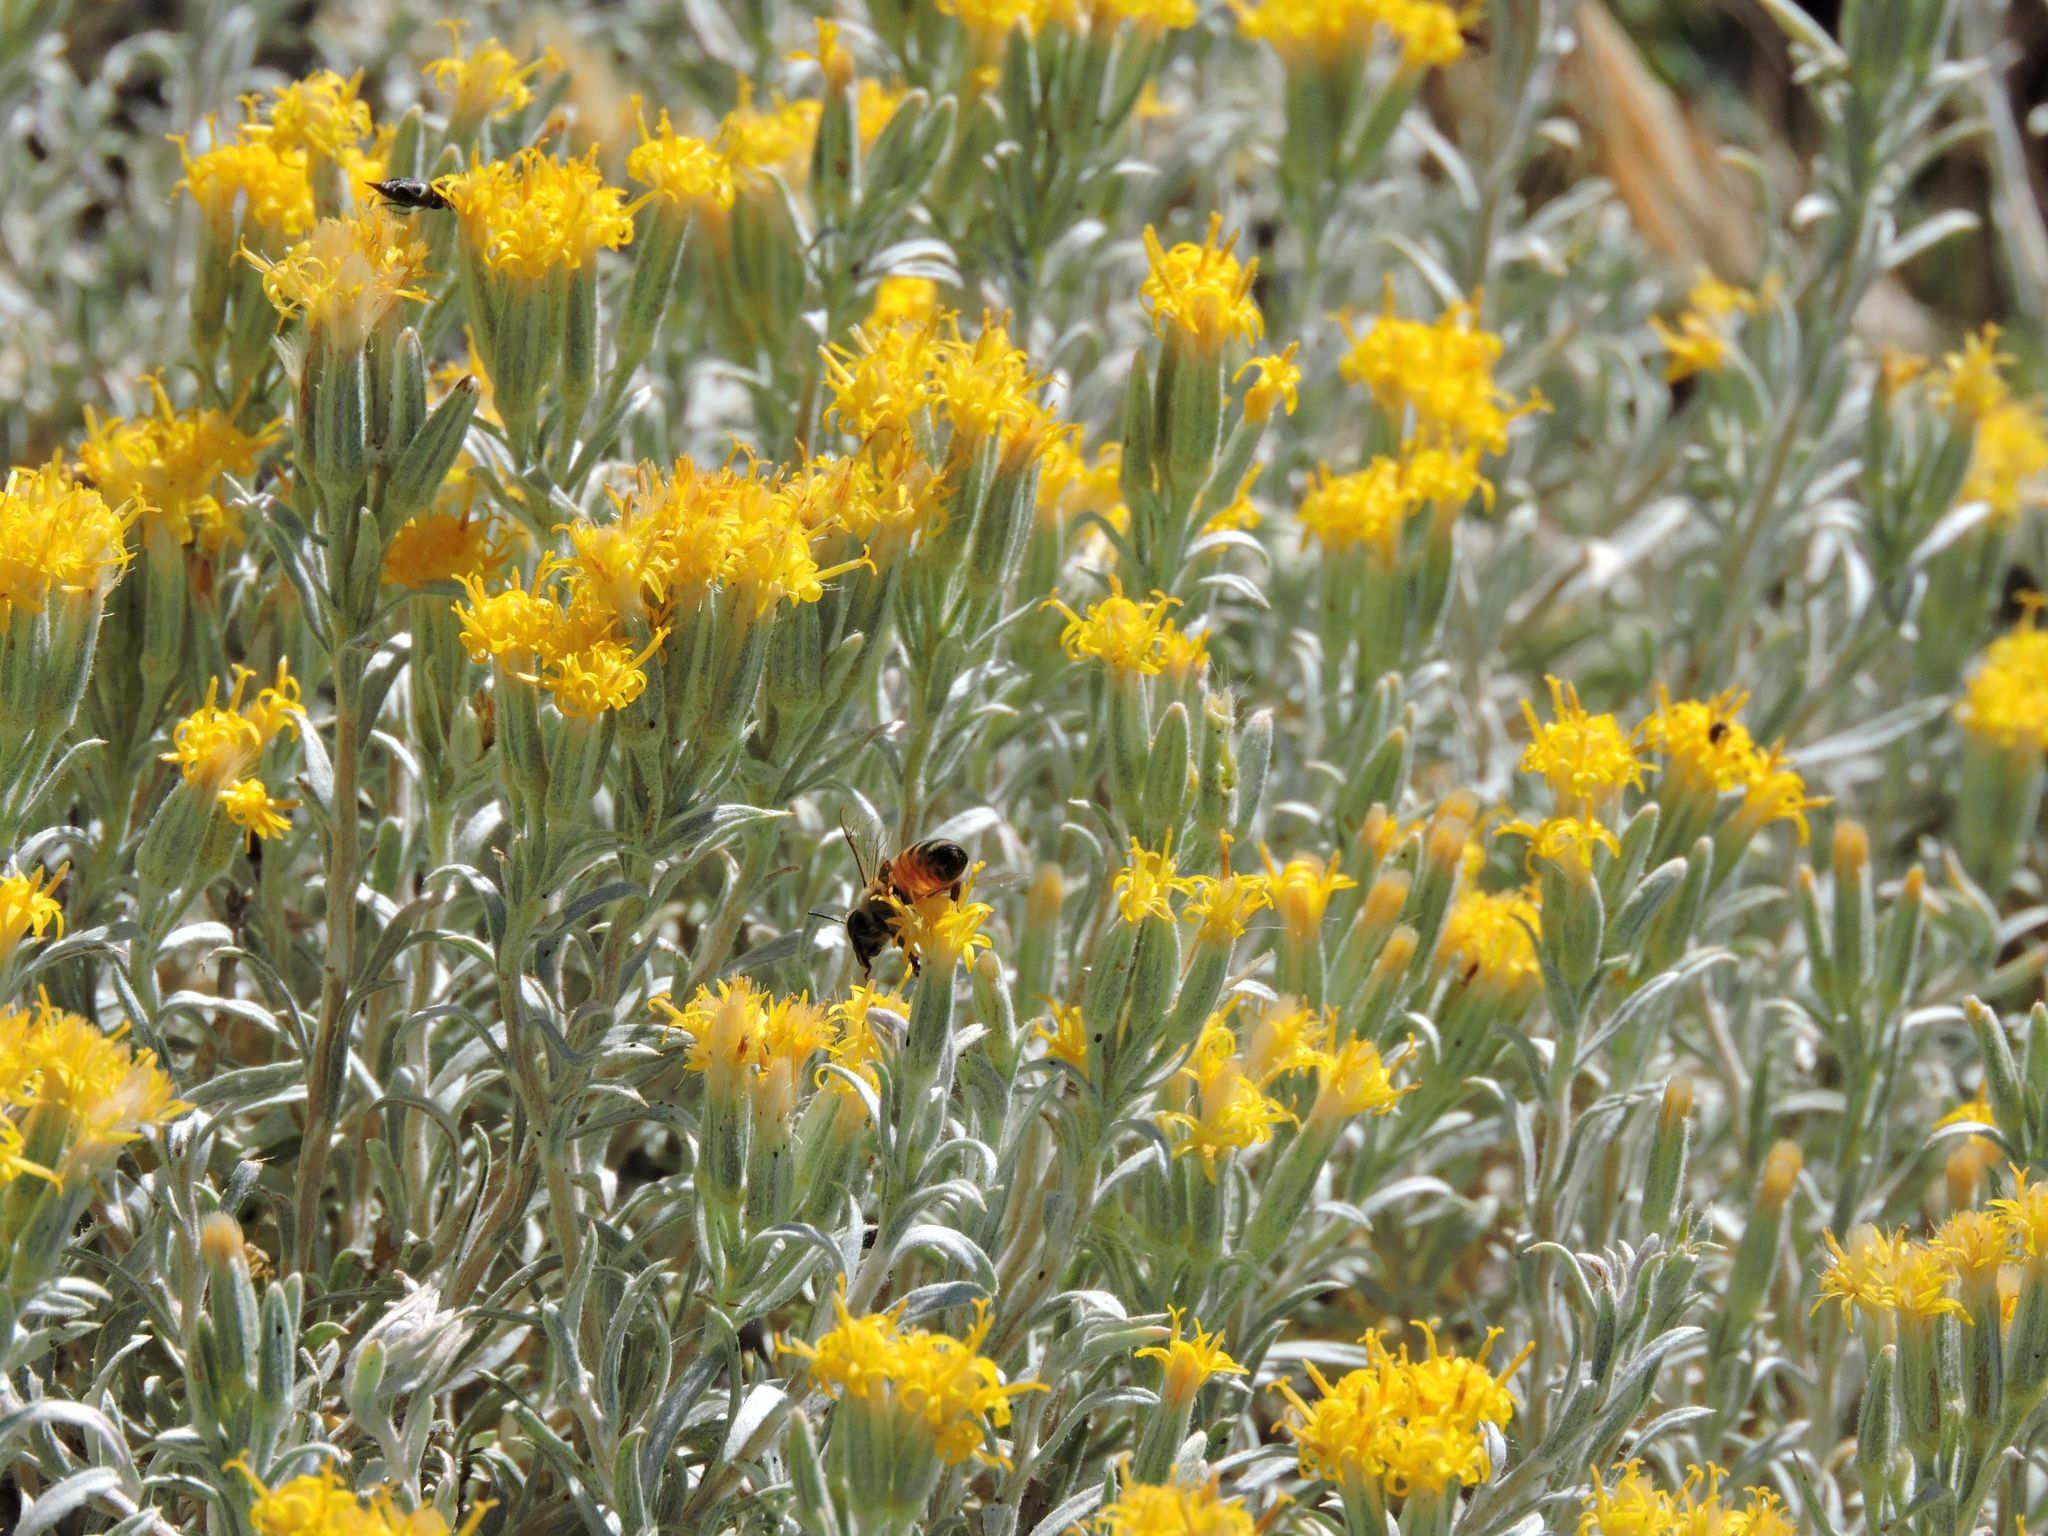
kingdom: Plantae
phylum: Tracheophyta
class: Magnoliopsida
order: Asterales
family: Asteraceae
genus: Tetradymia
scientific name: Tetradymia canescens
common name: Spineless horsebrush
